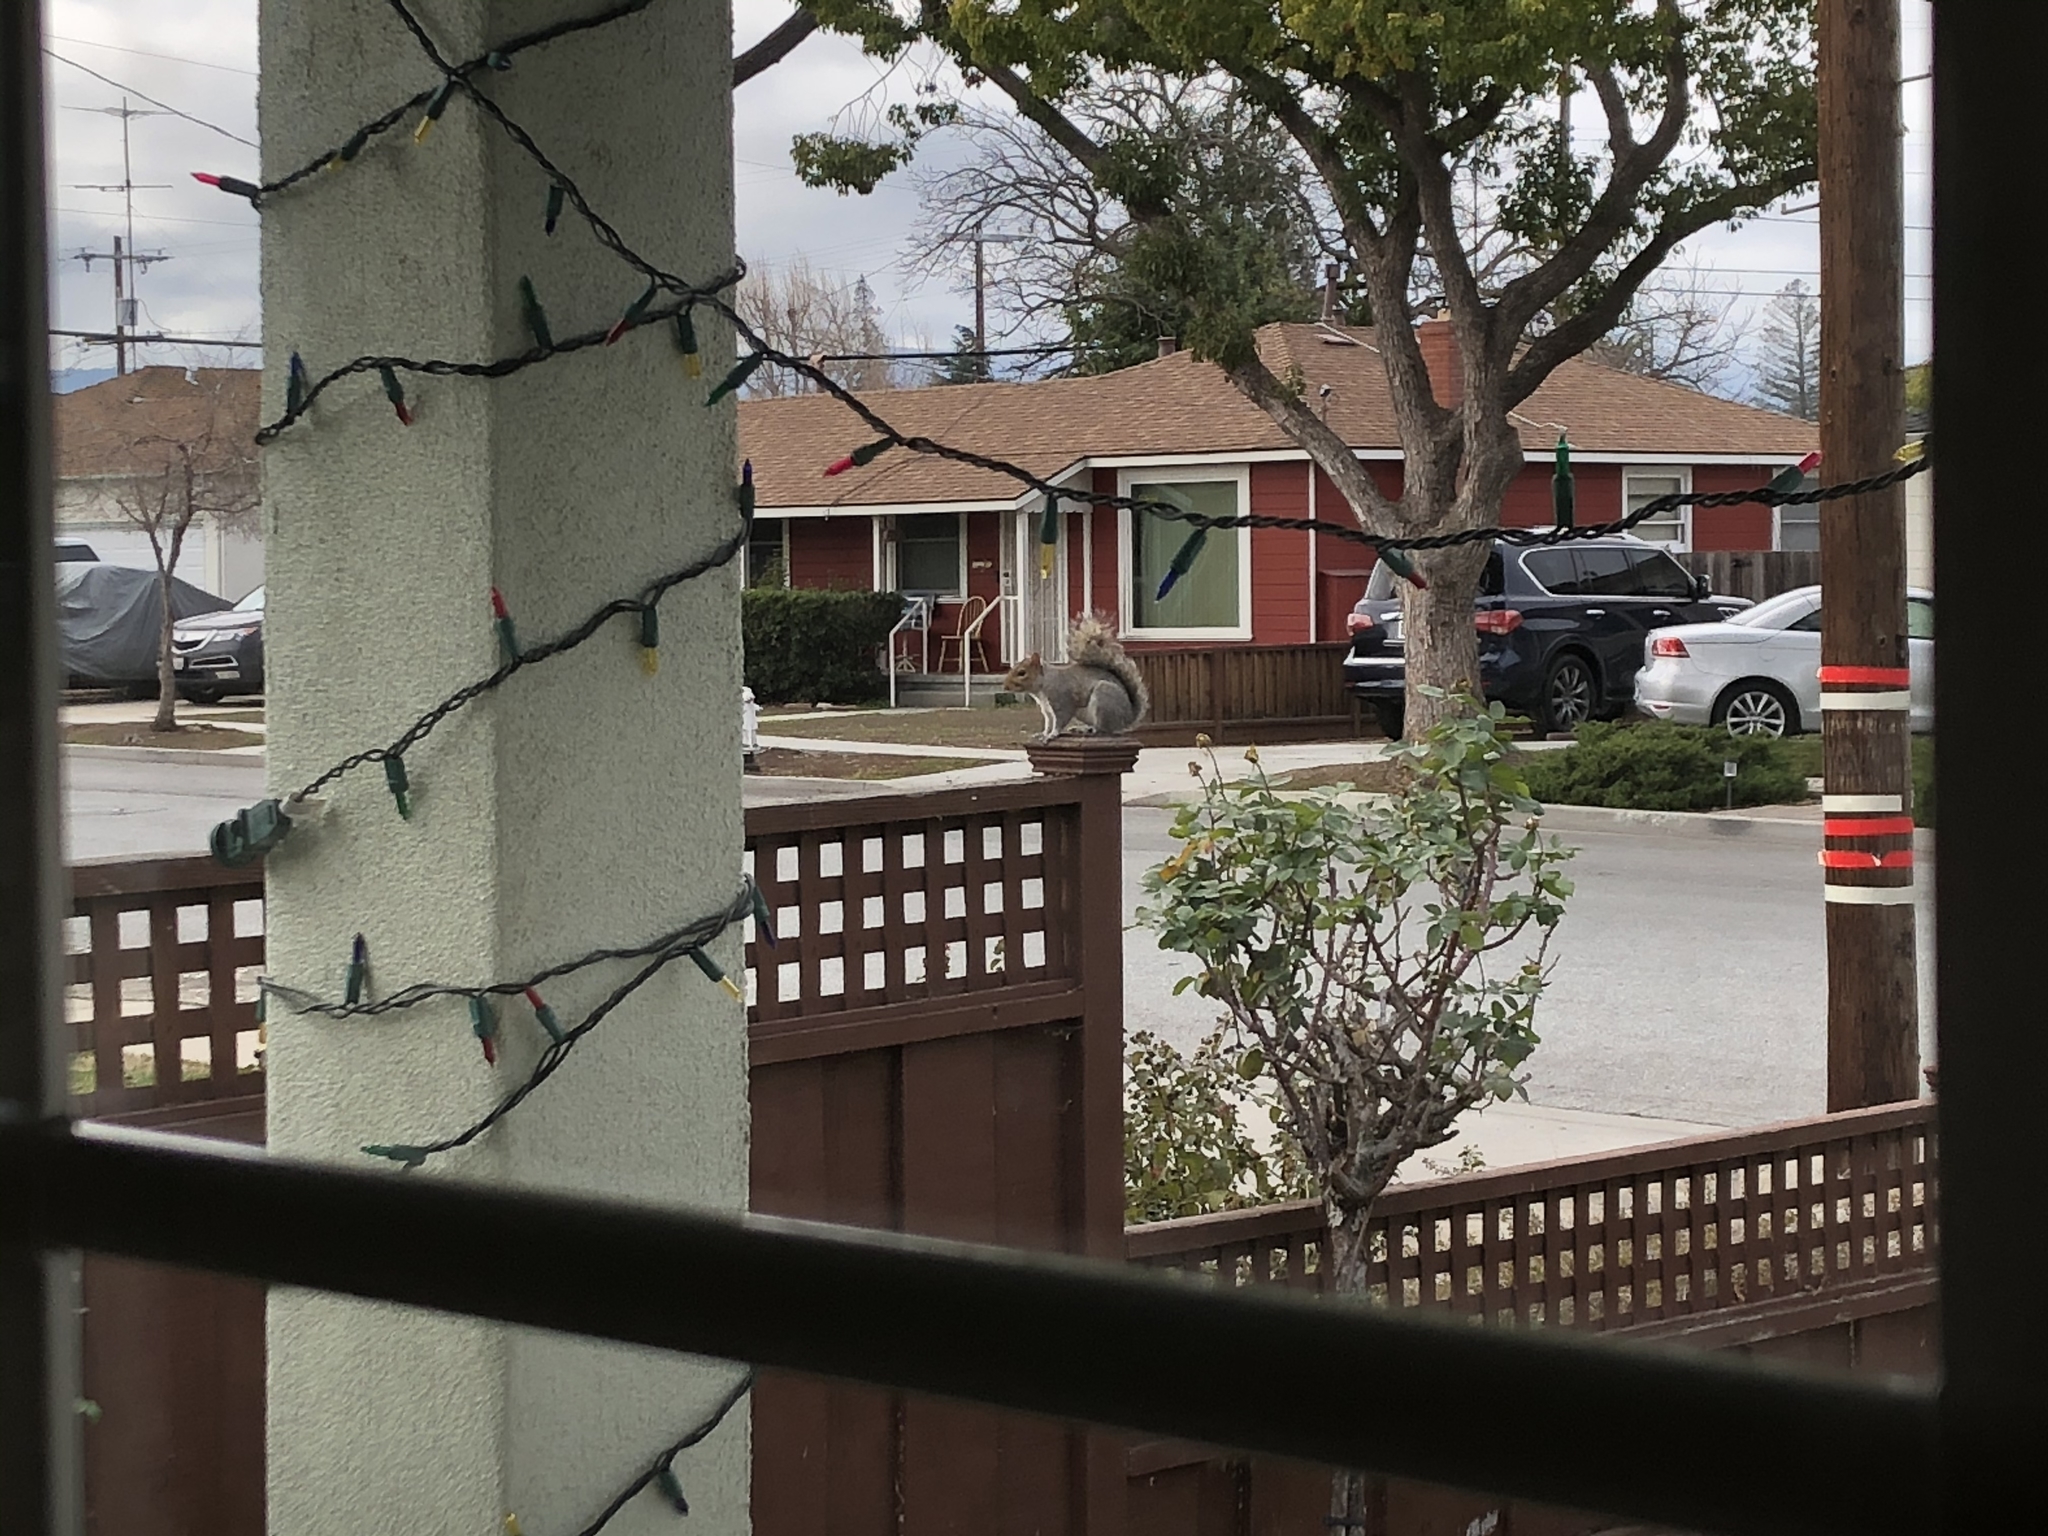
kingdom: Animalia
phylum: Chordata
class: Mammalia
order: Rodentia
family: Sciuridae
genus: Sciurus
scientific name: Sciurus carolinensis
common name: Eastern gray squirrel
